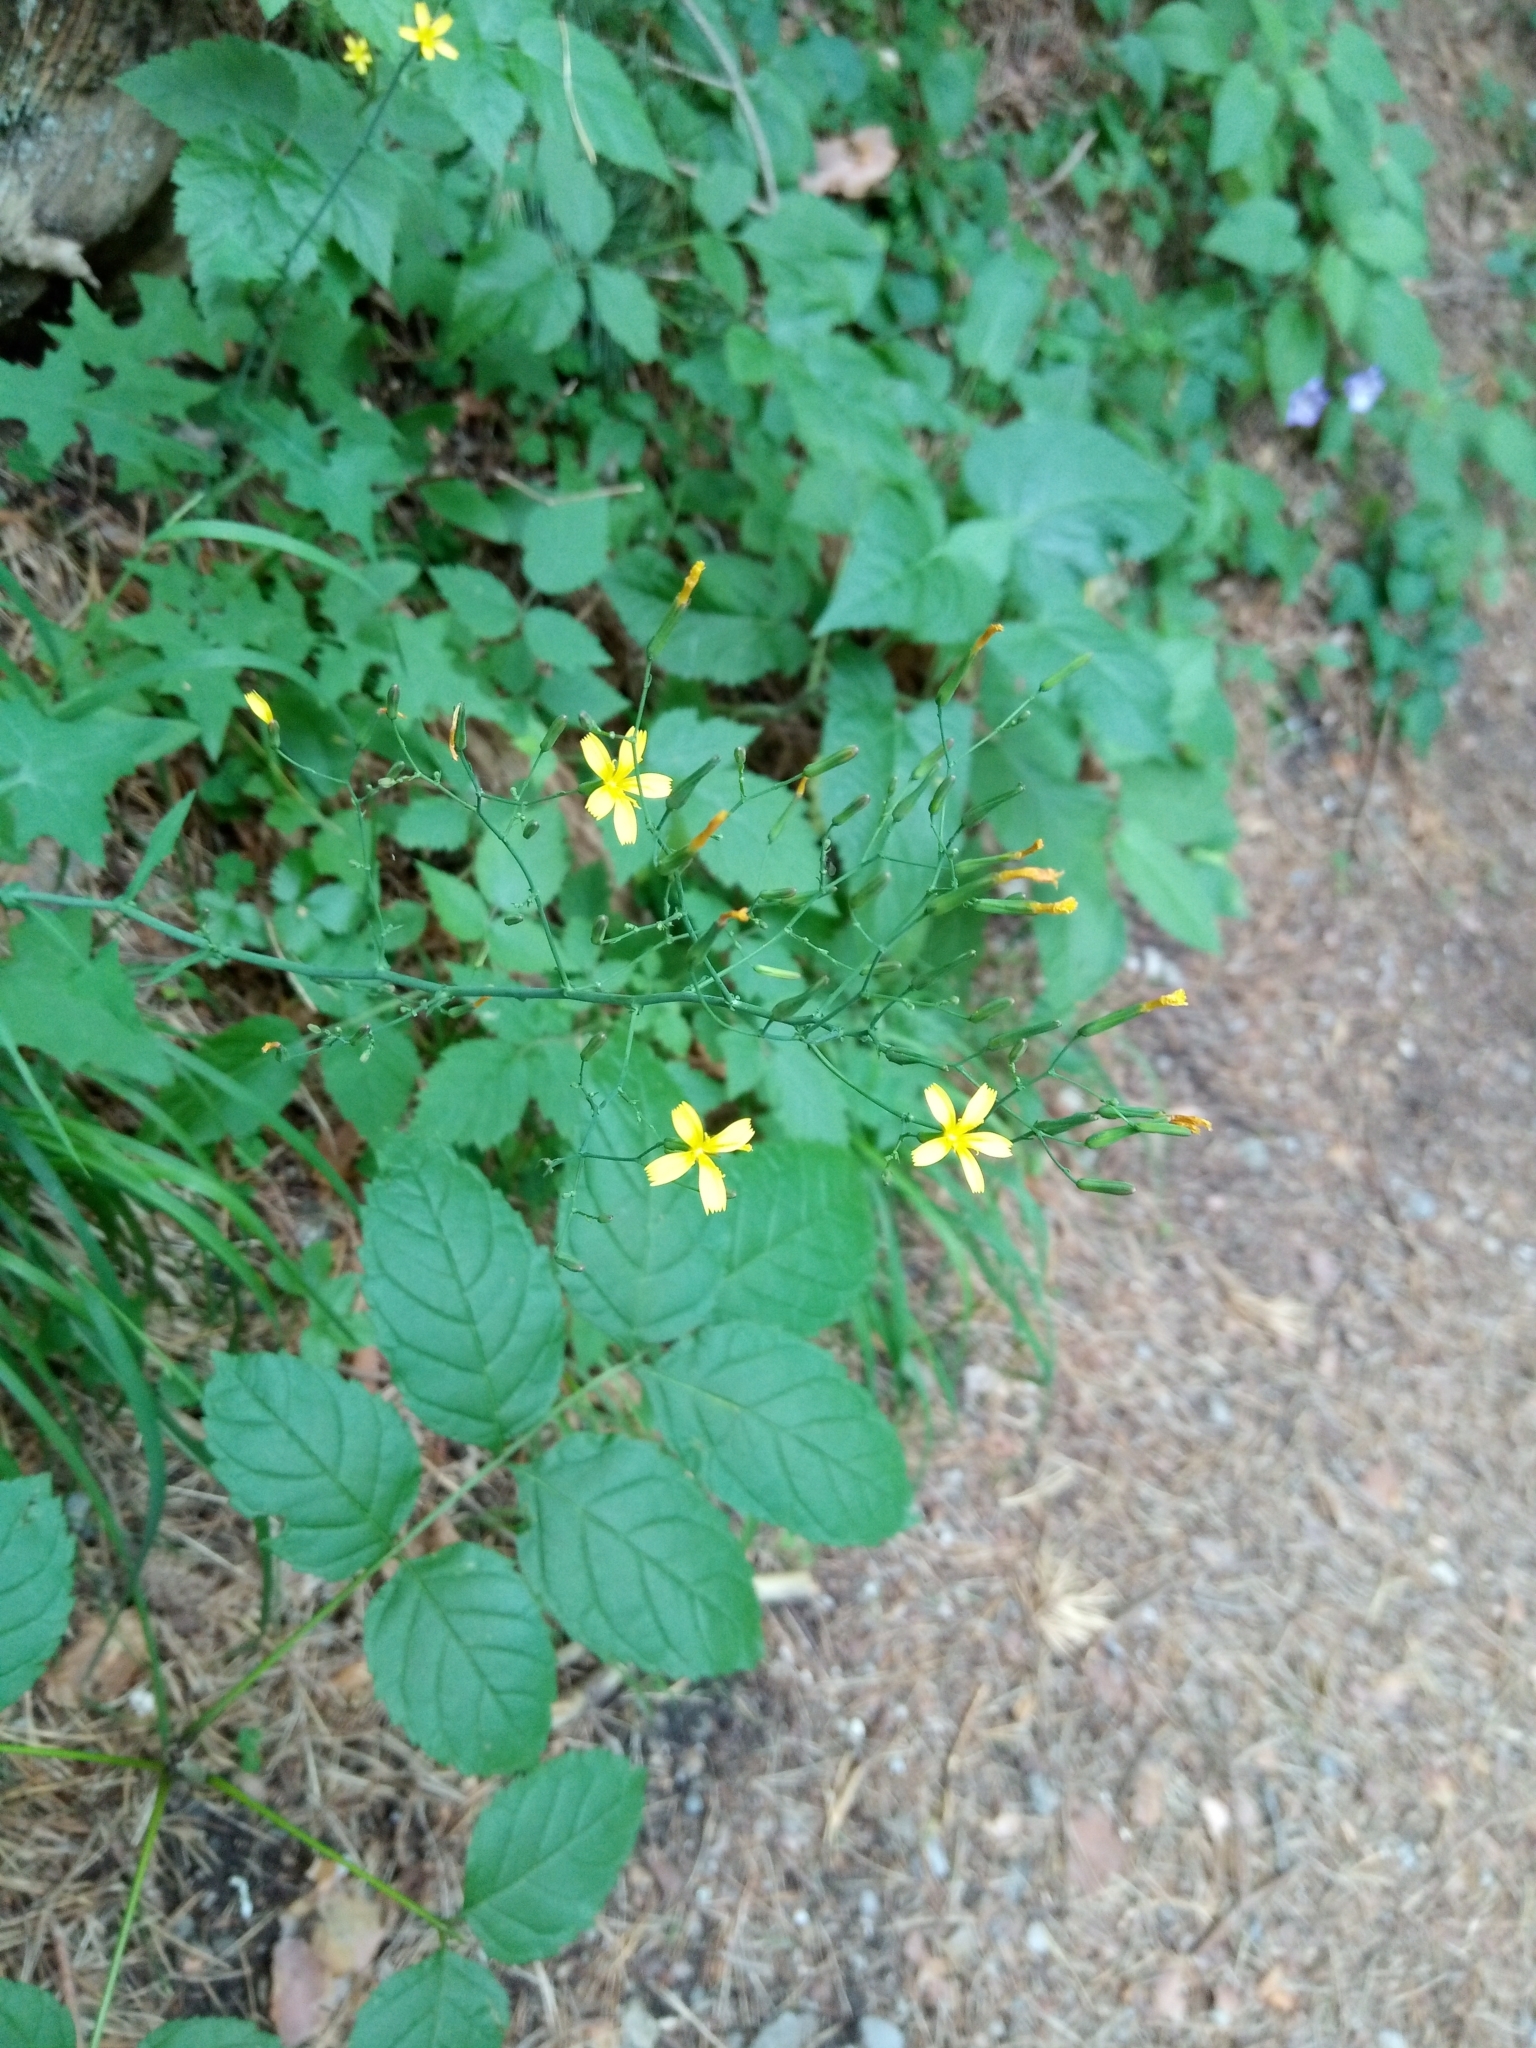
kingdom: Plantae
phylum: Tracheophyta
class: Magnoliopsida
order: Asterales
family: Asteraceae
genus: Mycelis
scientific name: Mycelis muralis
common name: Wall lettuce
